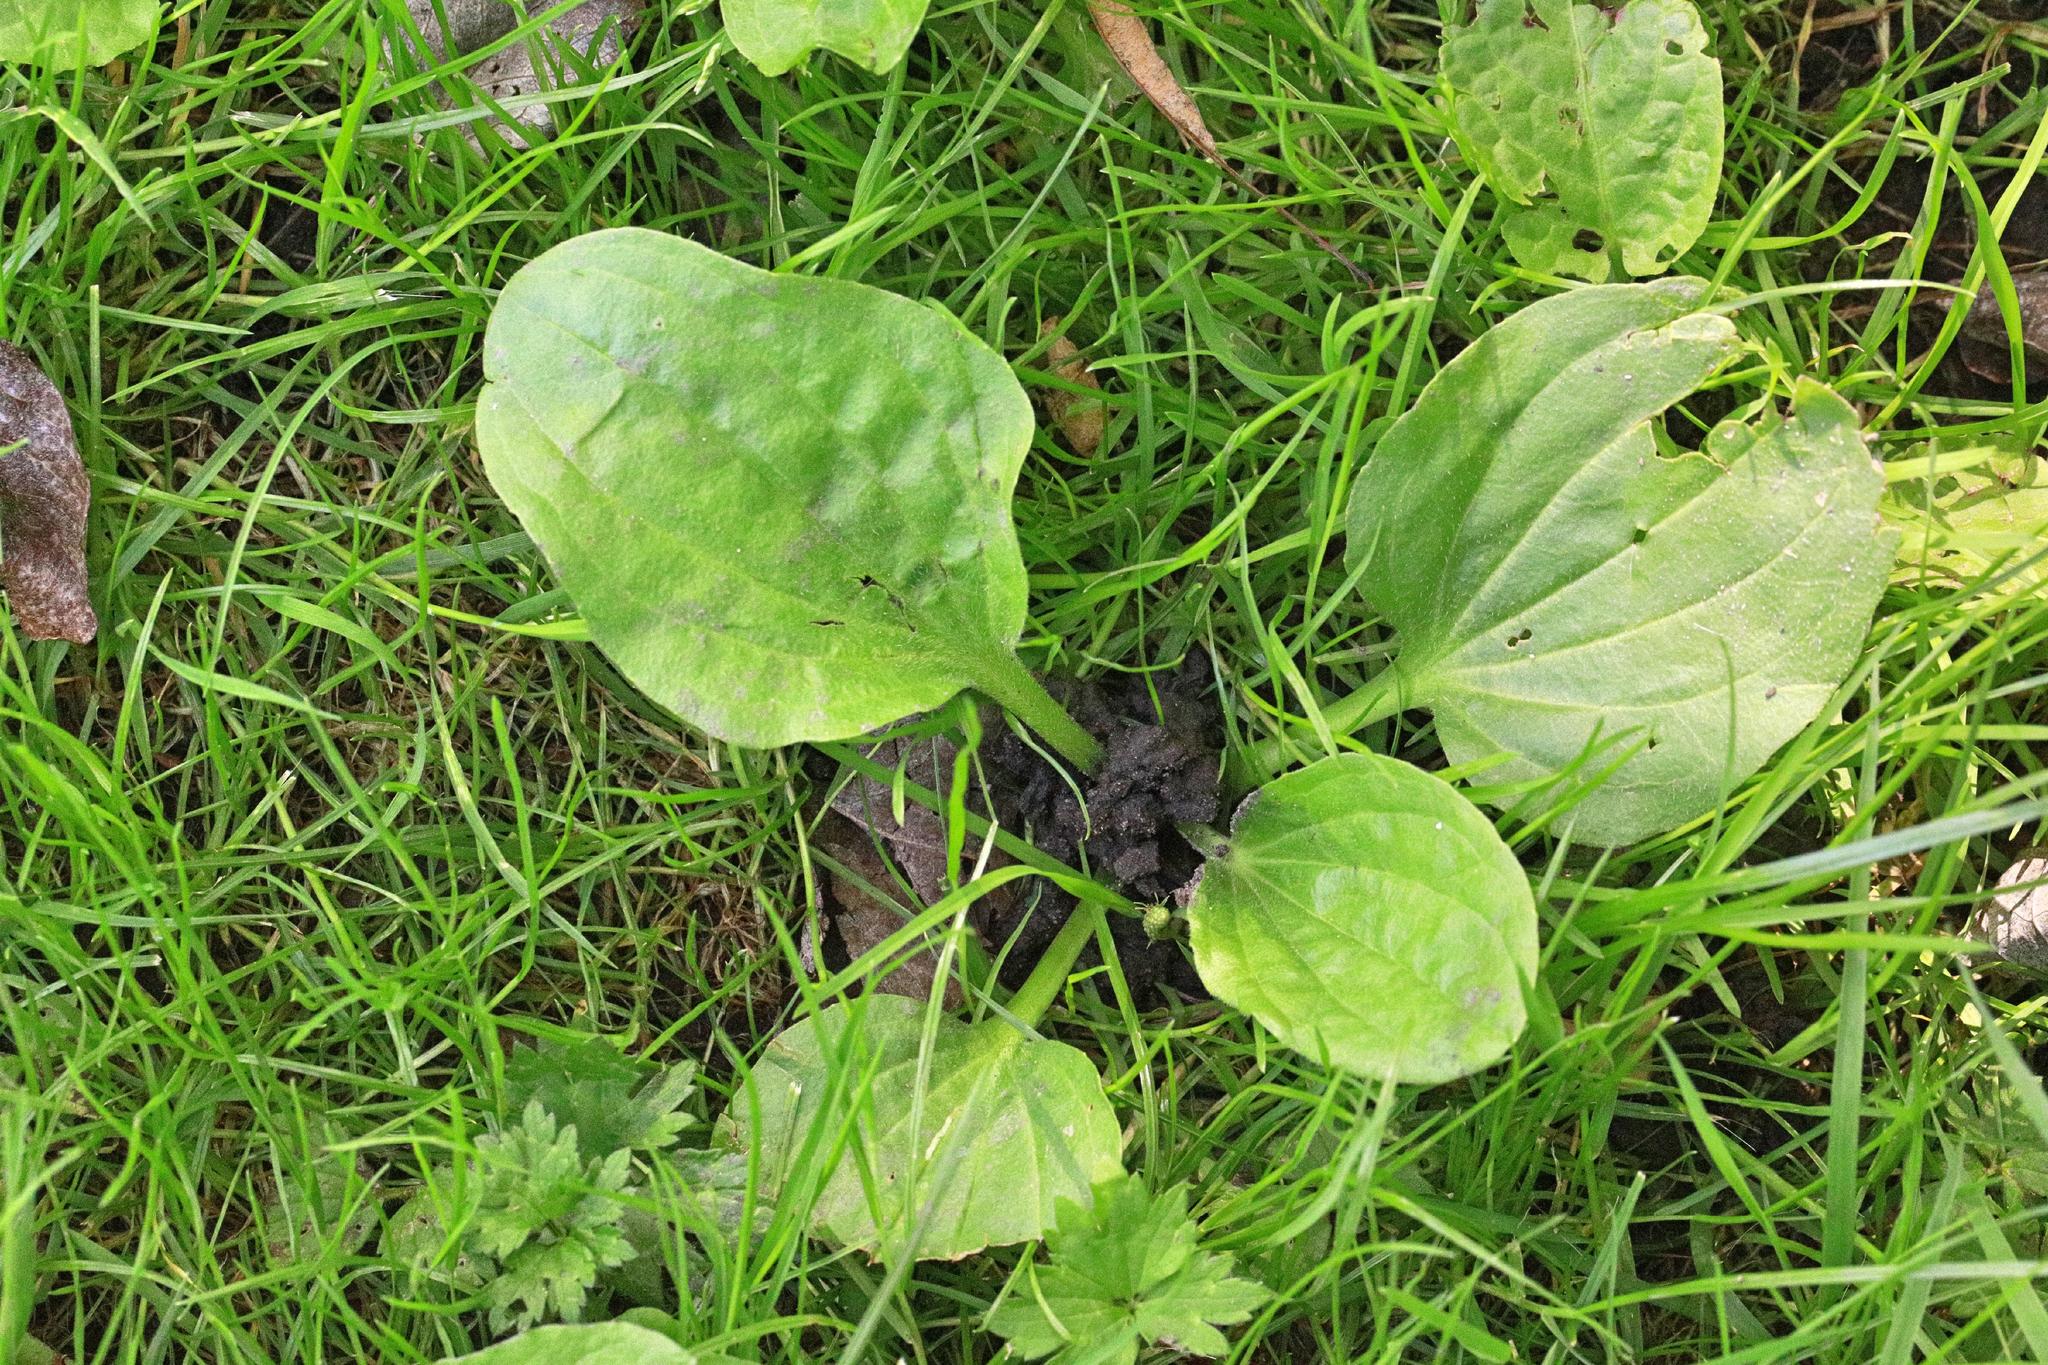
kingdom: Plantae
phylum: Tracheophyta
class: Magnoliopsida
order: Lamiales
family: Plantaginaceae
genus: Plantago
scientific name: Plantago major
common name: Common plantain
